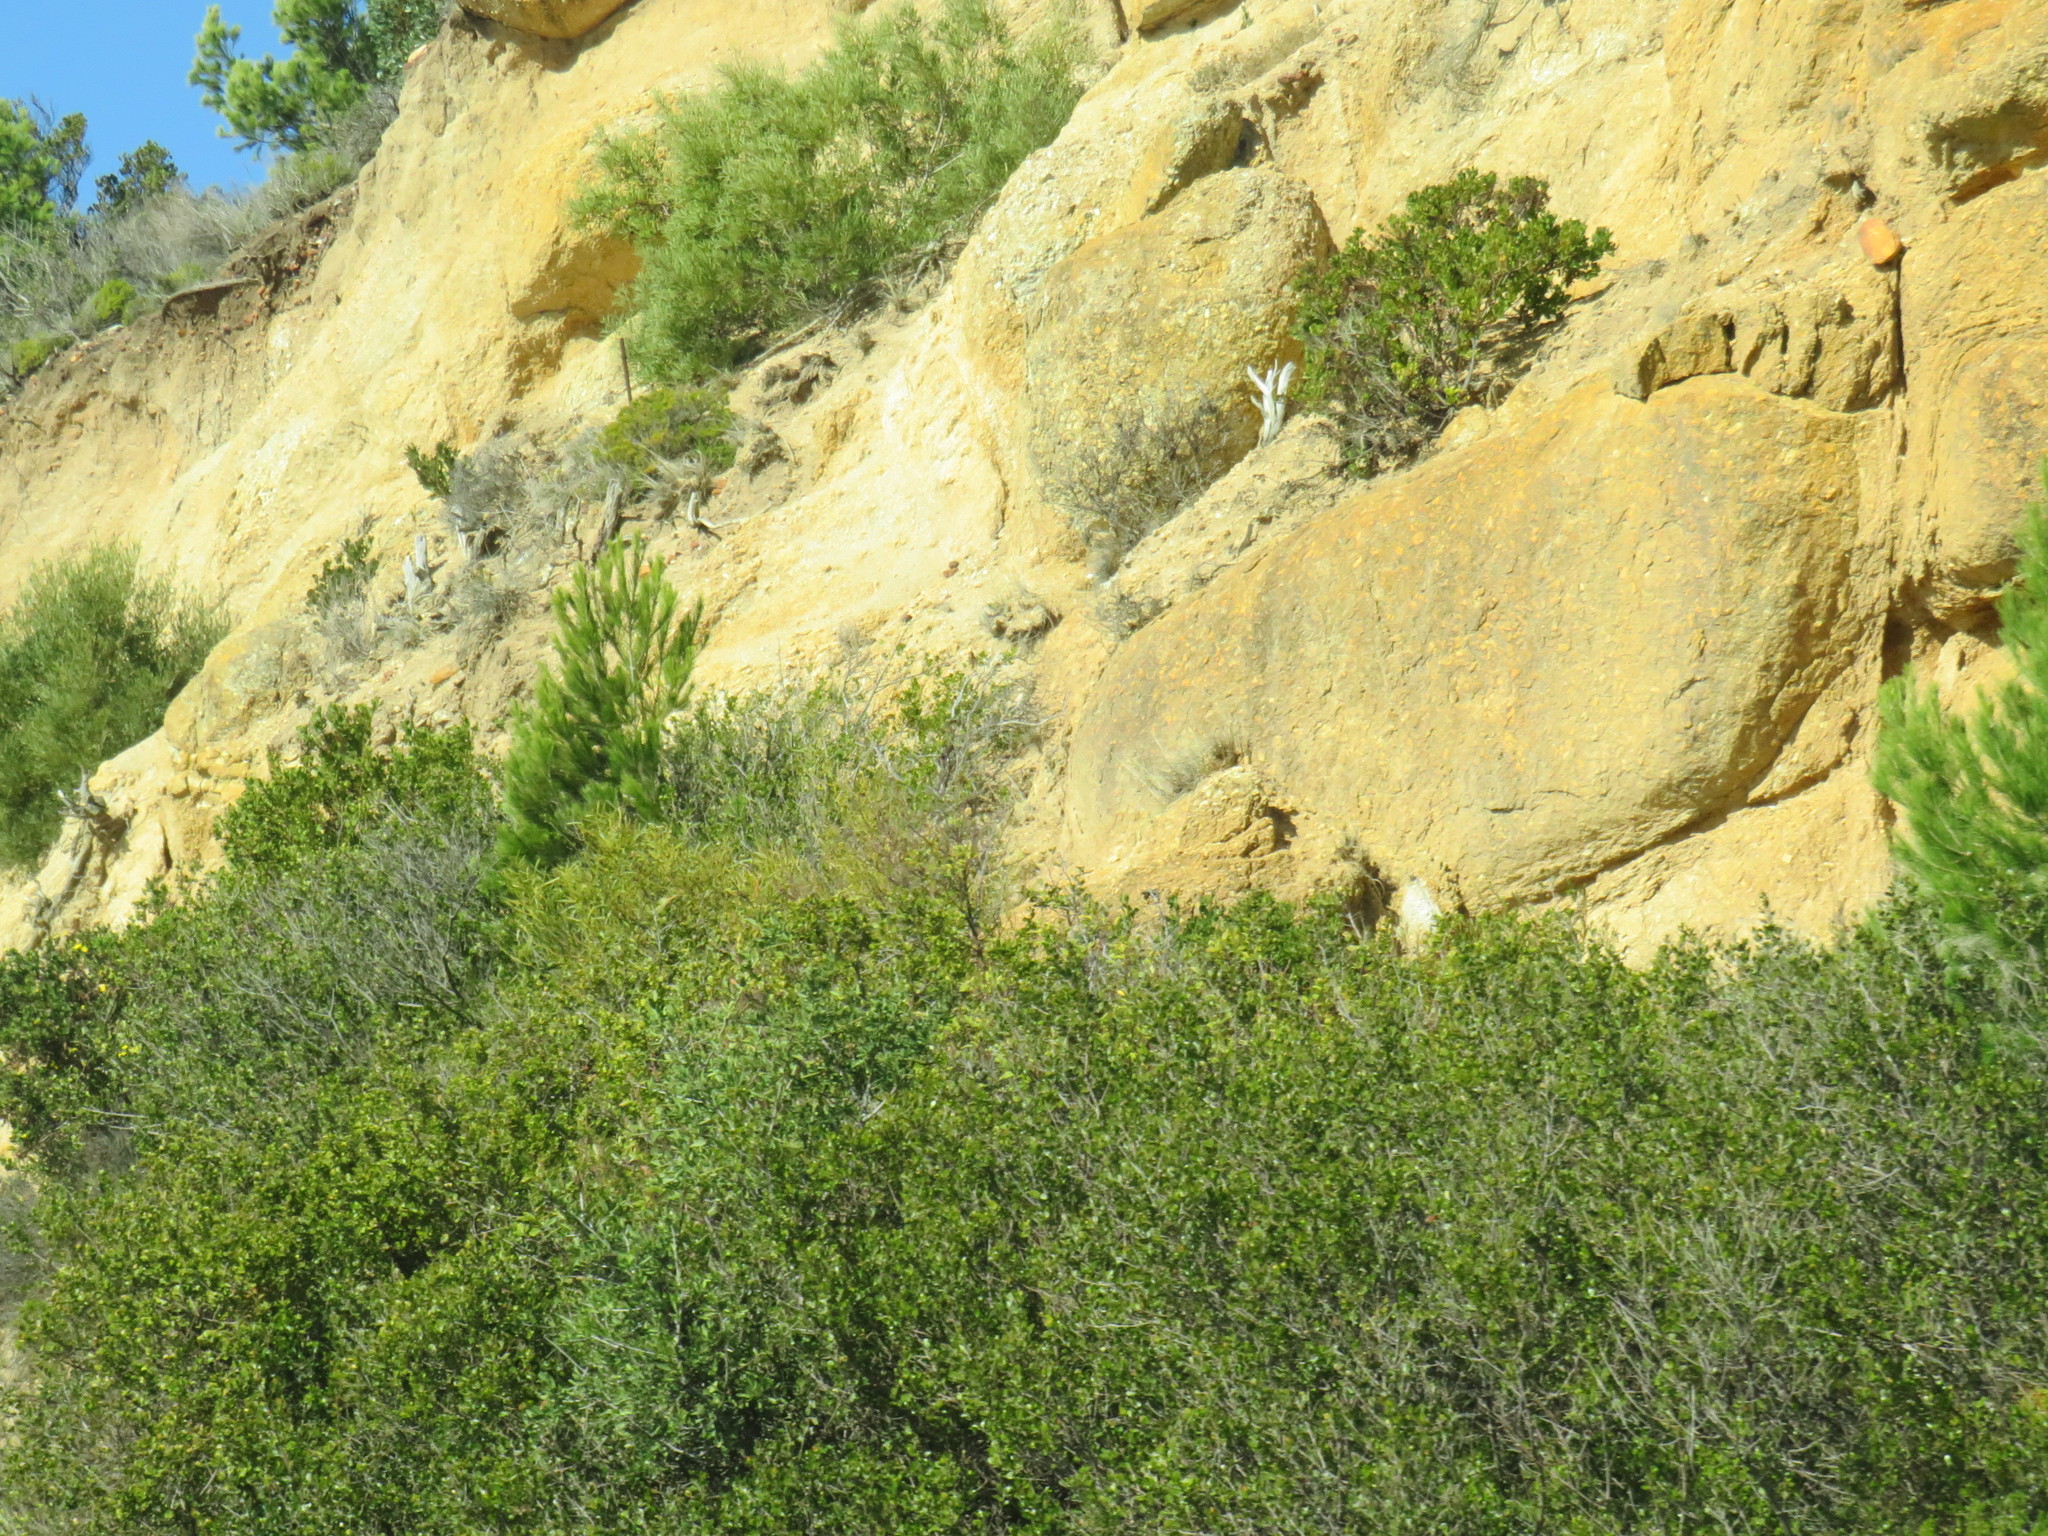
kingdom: Plantae
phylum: Tracheophyta
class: Pinopsida
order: Pinales
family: Pinaceae
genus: Pinus
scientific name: Pinus halepensis
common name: Aleppo pine
